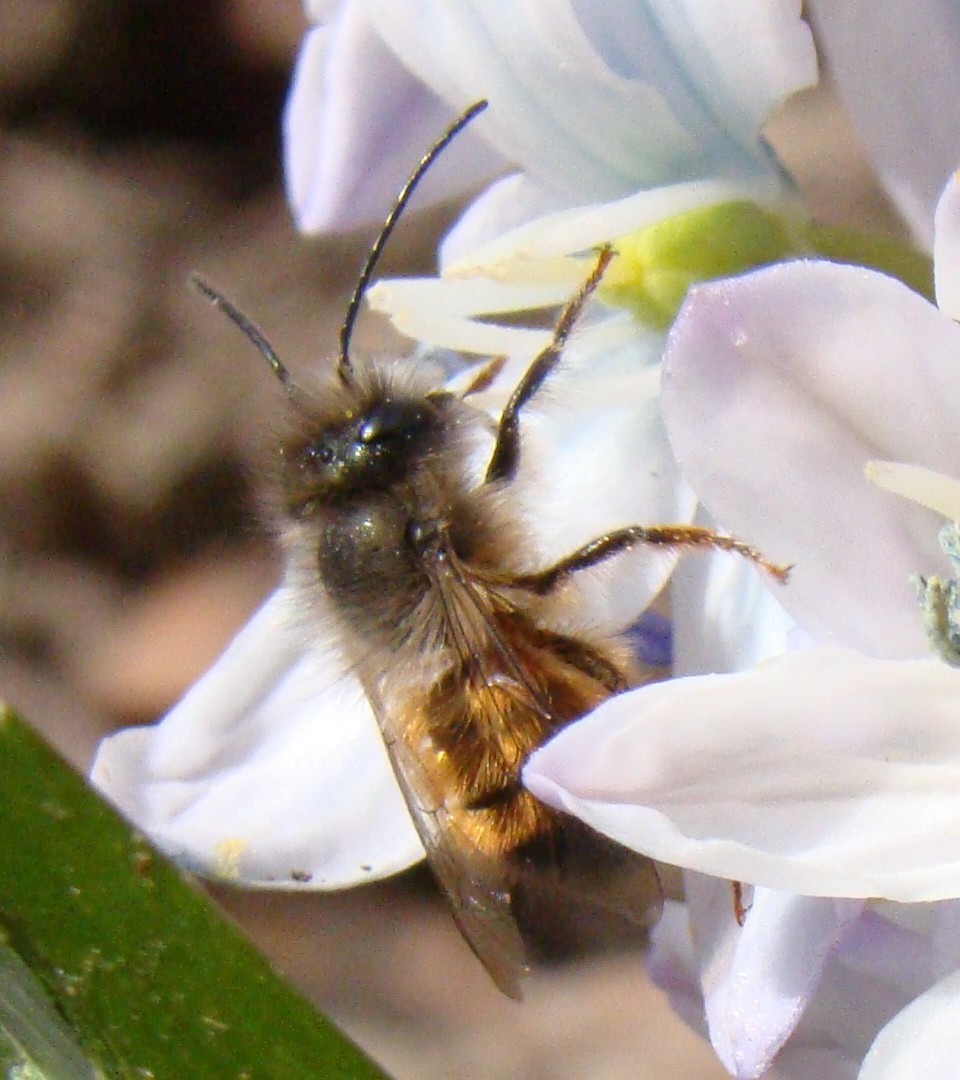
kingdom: Animalia
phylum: Arthropoda
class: Insecta
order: Hymenoptera
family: Megachilidae
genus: Osmia
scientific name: Osmia bicornis
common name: Red mason bee
